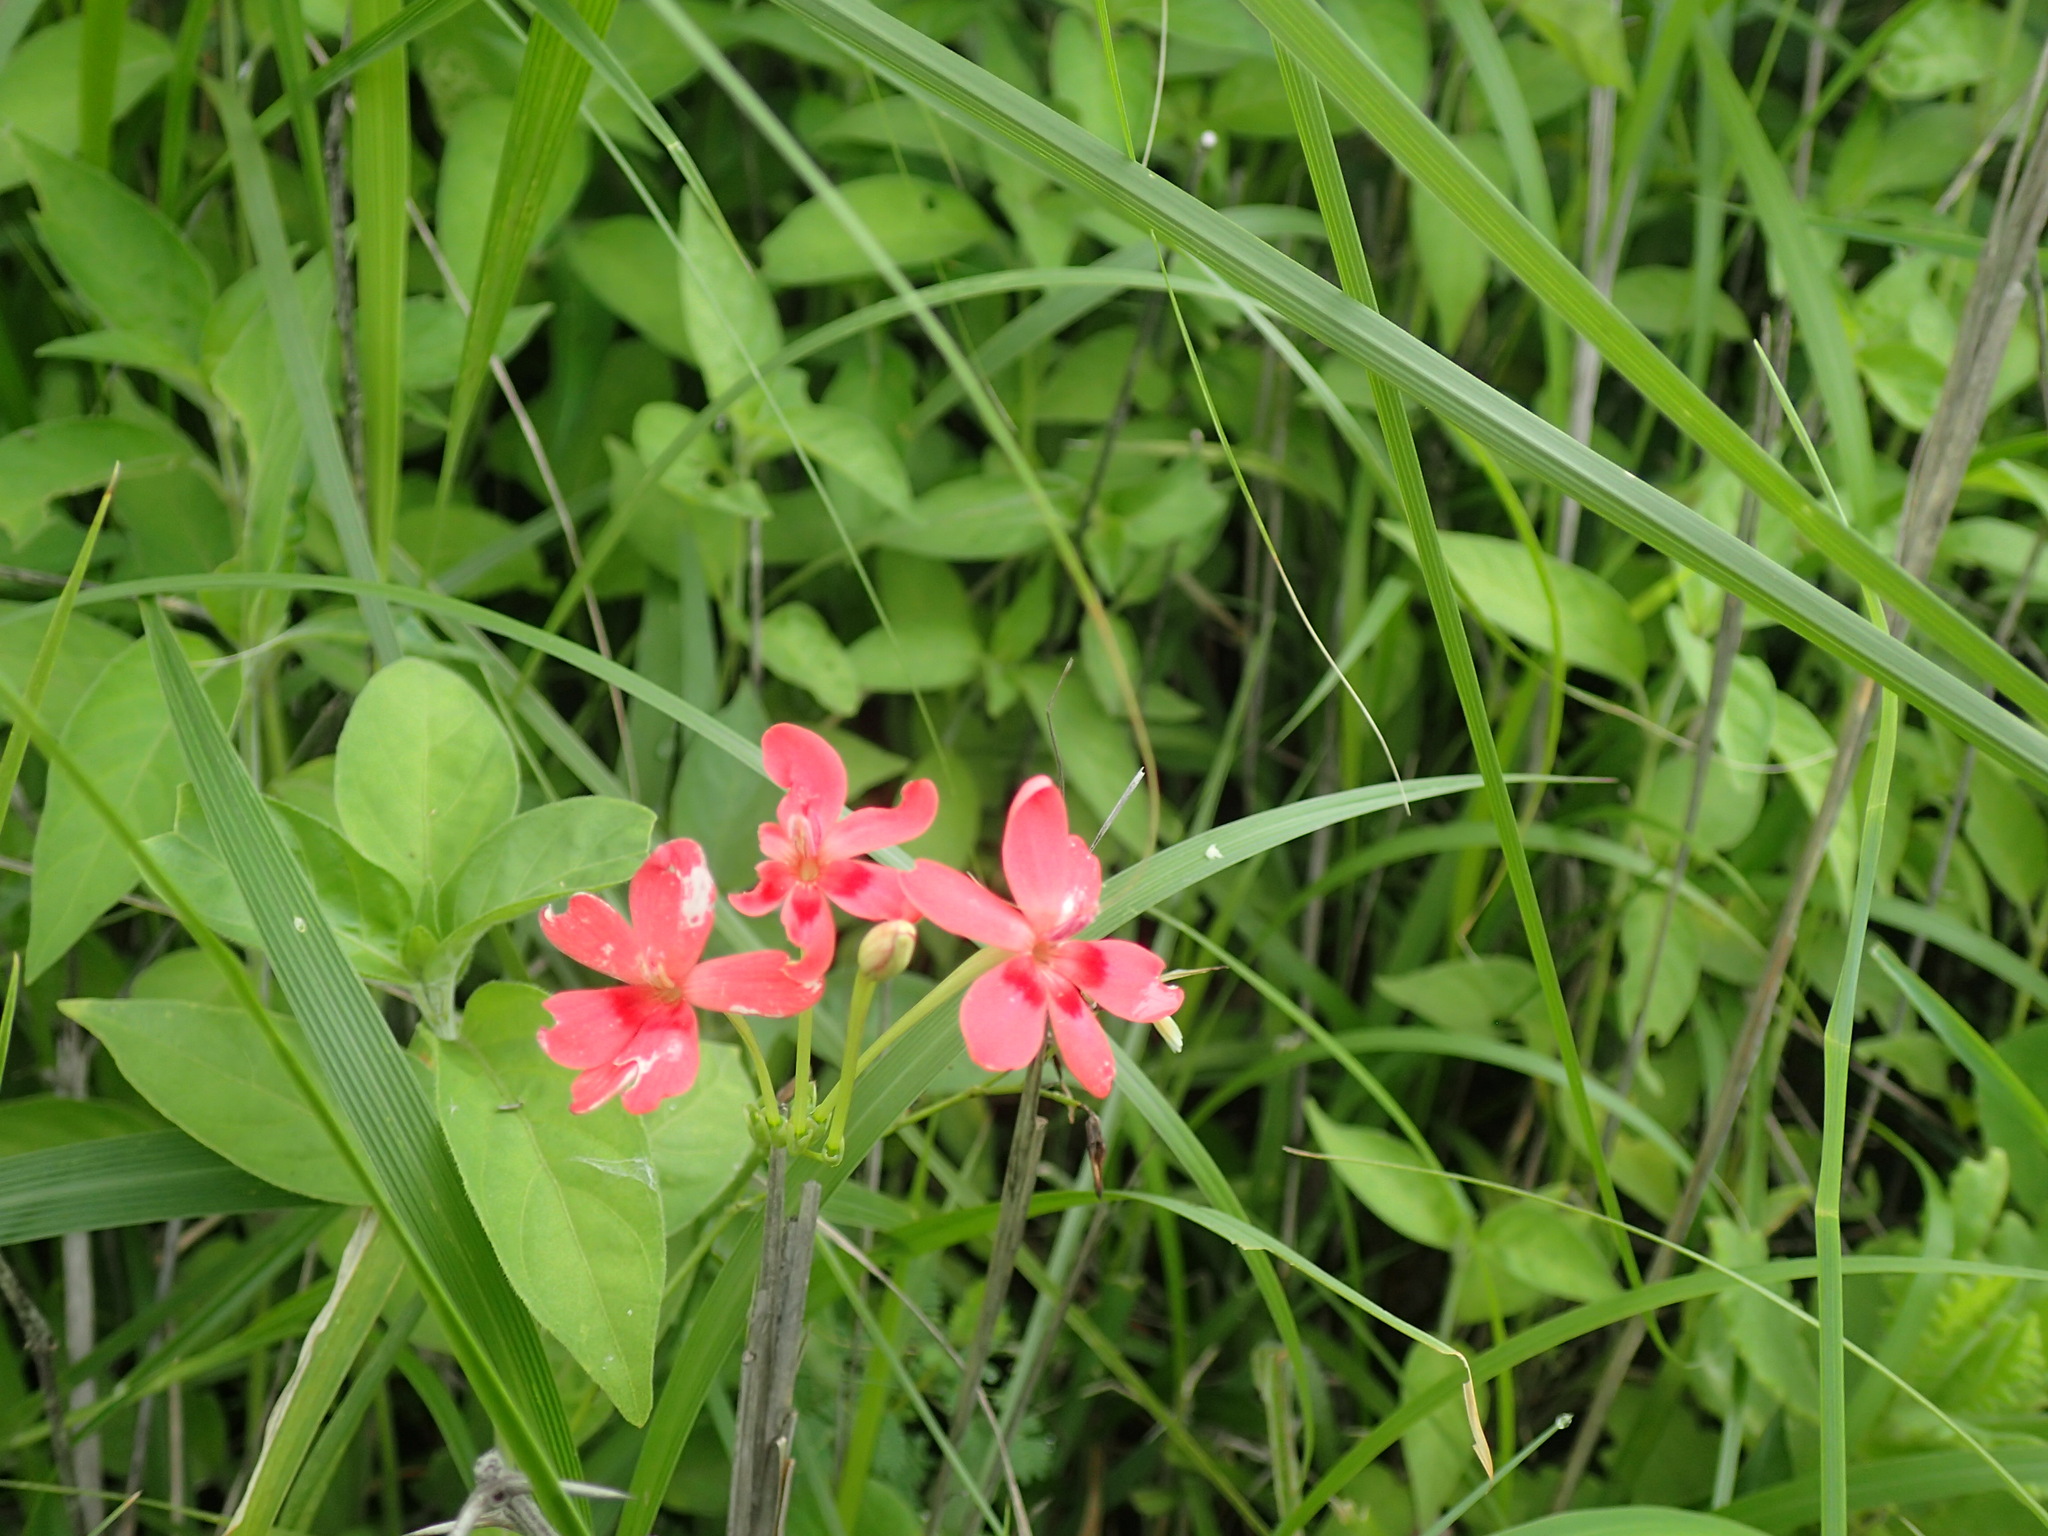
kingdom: Plantae
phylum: Tracheophyta
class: Liliopsida
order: Asparagales
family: Iridaceae
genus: Freesia
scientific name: Freesia laxa
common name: False freesia
